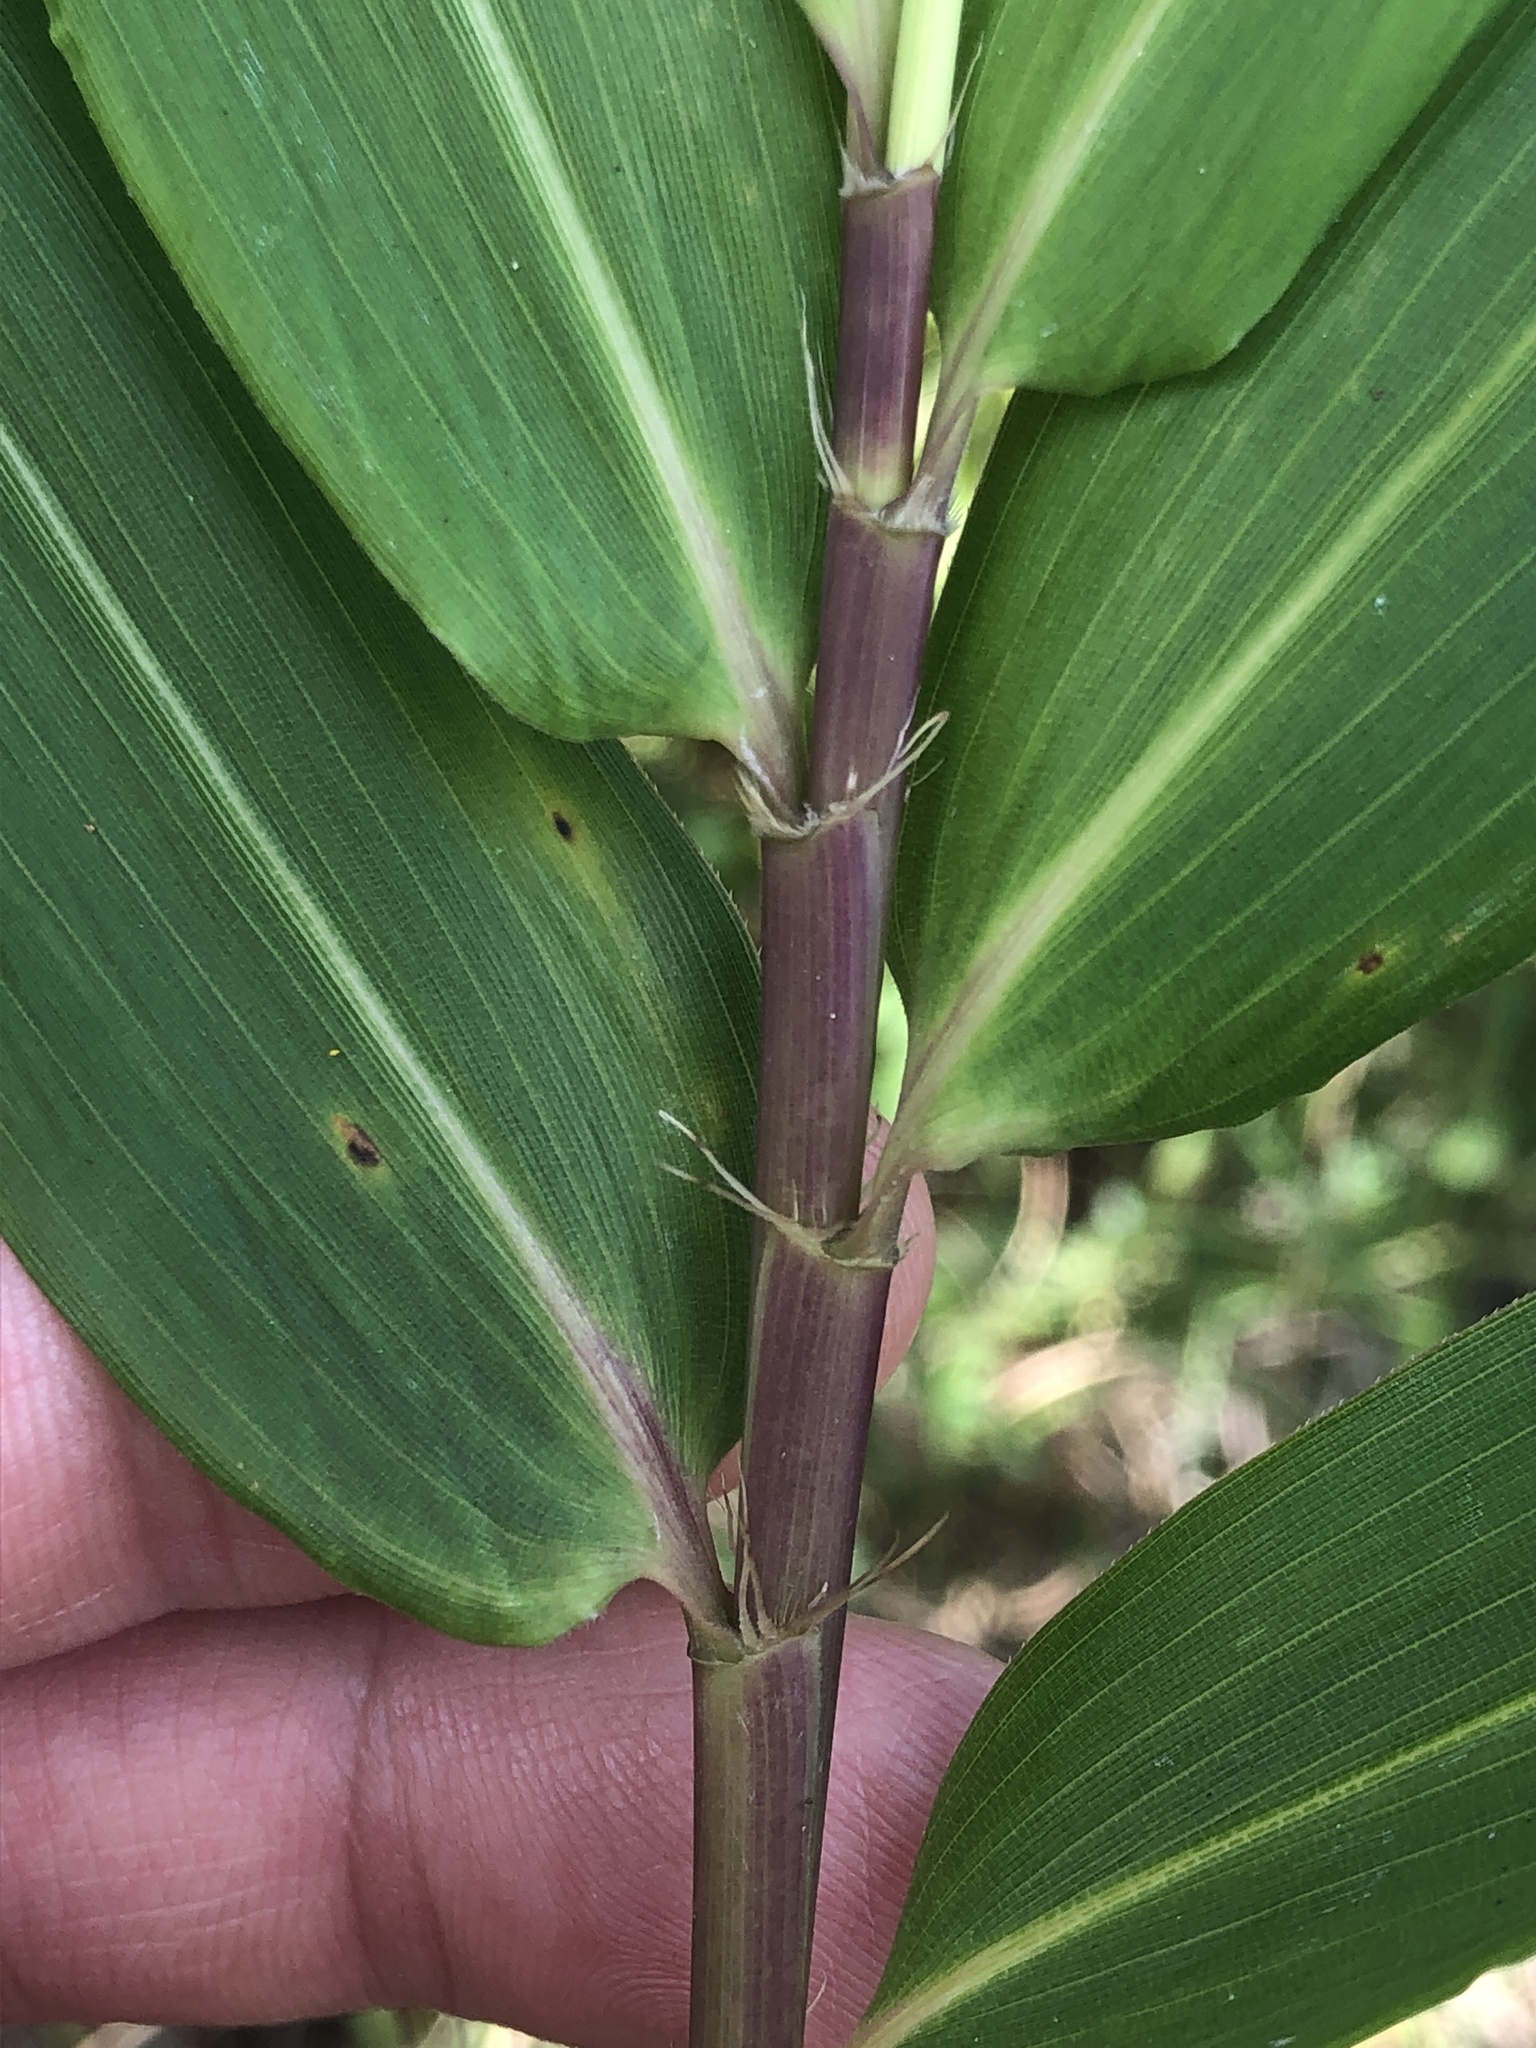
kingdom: Plantae
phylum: Tracheophyta
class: Liliopsida
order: Poales
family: Poaceae
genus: Arundinaria
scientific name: Arundinaria tecta
